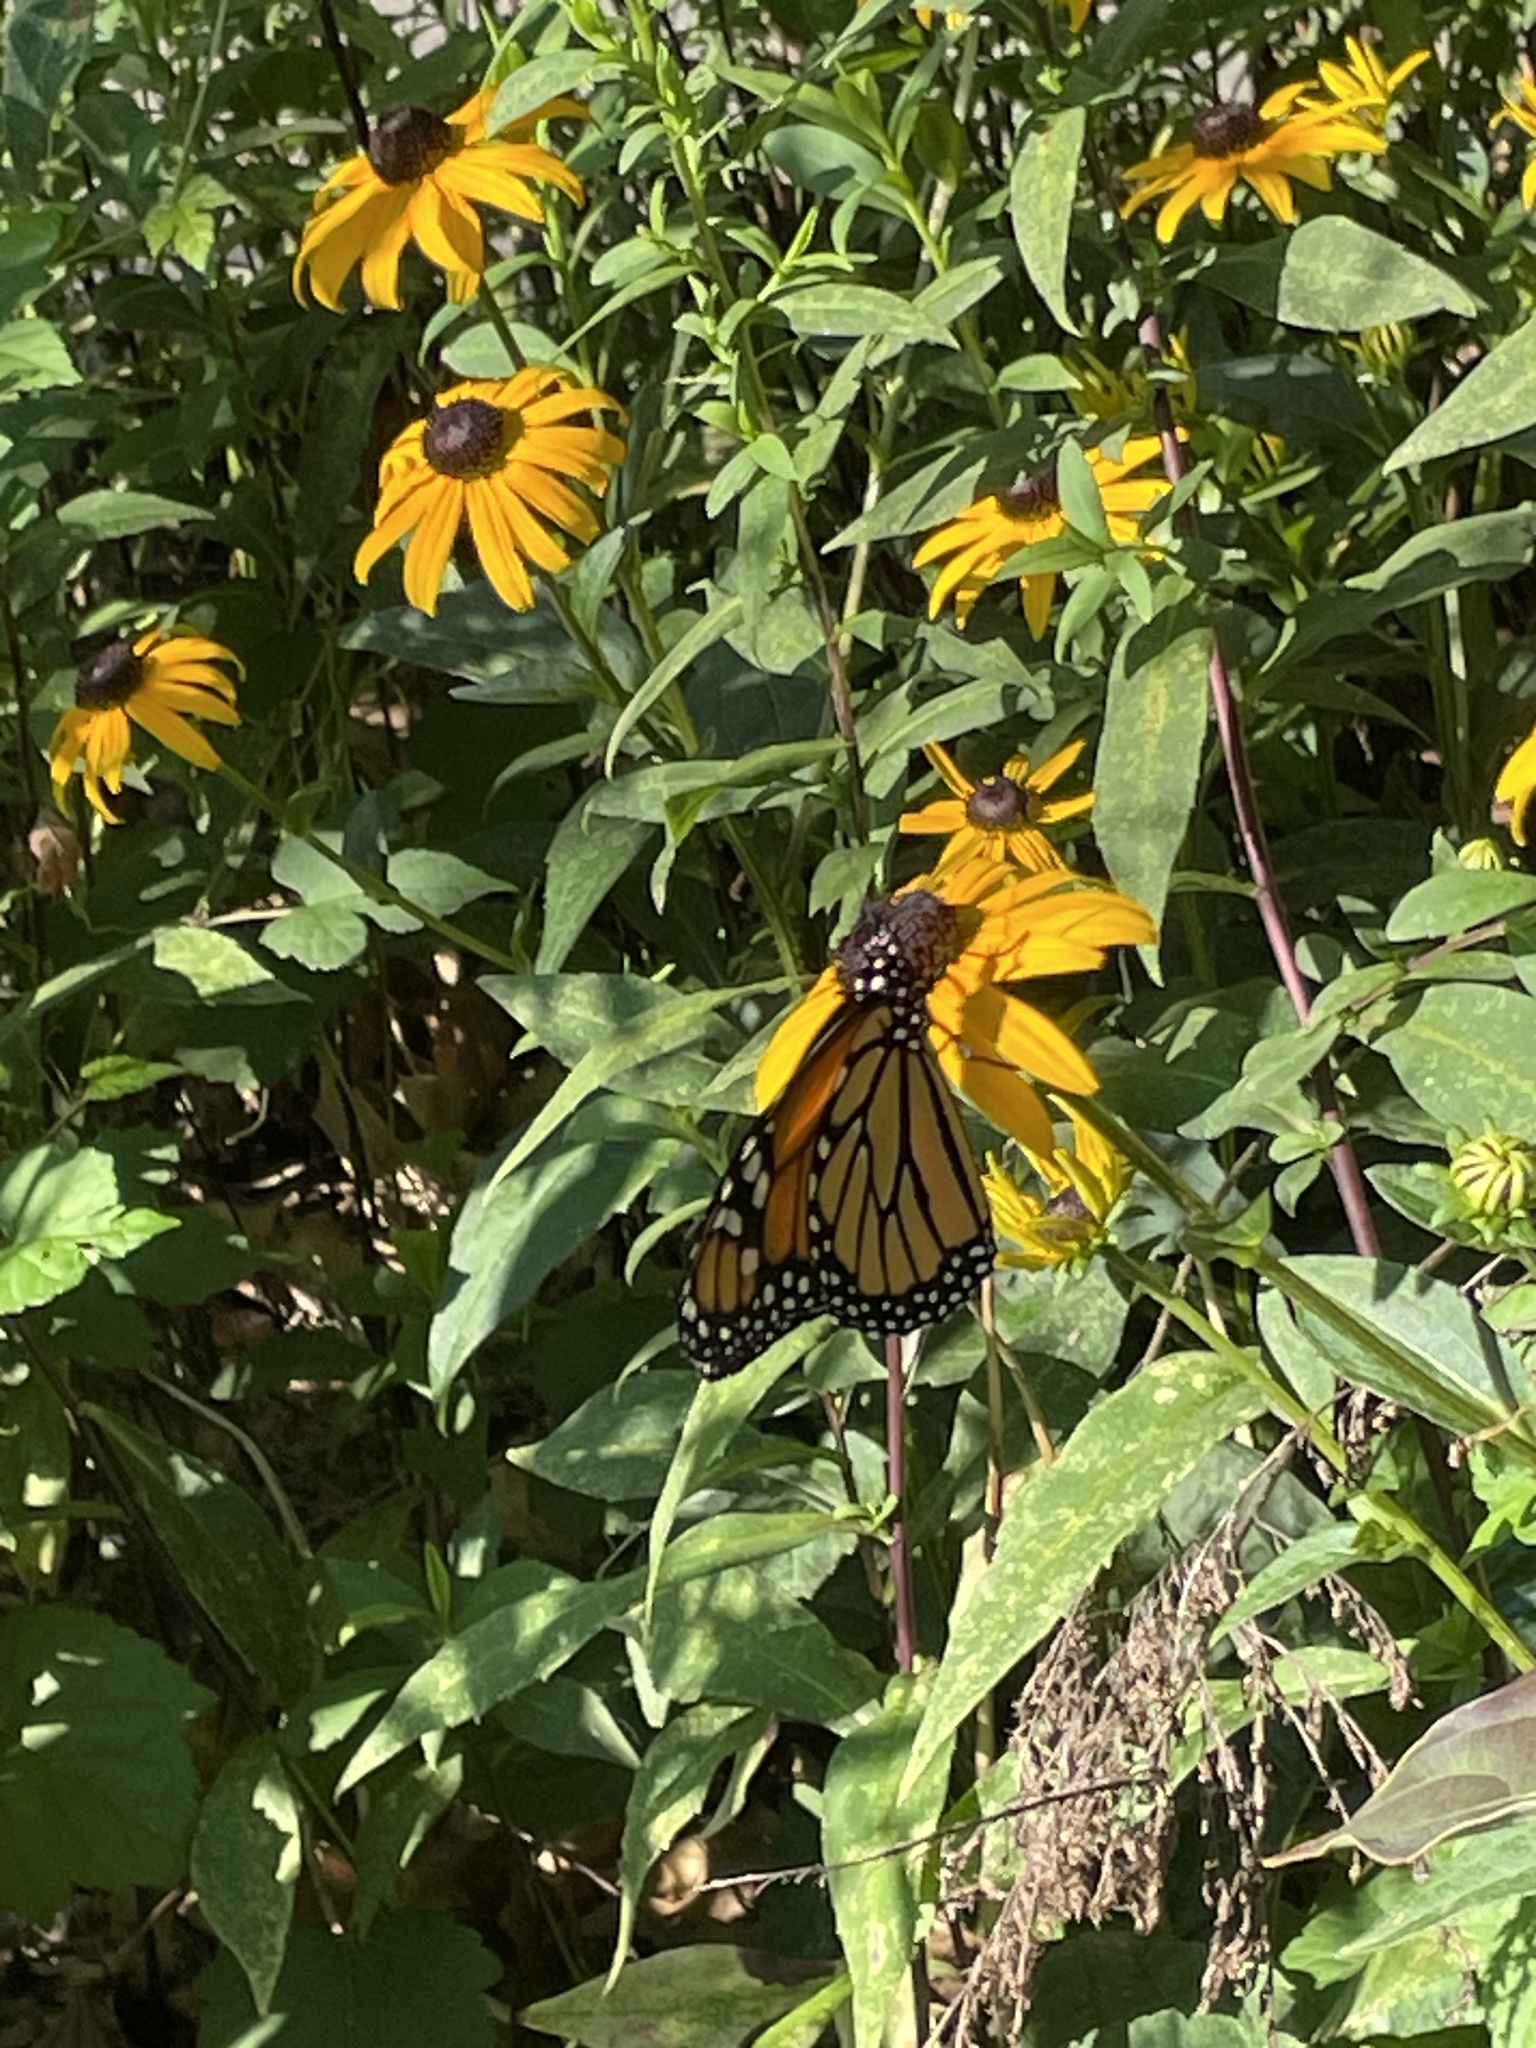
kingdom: Animalia
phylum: Arthropoda
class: Insecta
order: Lepidoptera
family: Nymphalidae
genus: Danaus
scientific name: Danaus plexippus
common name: Monarch
